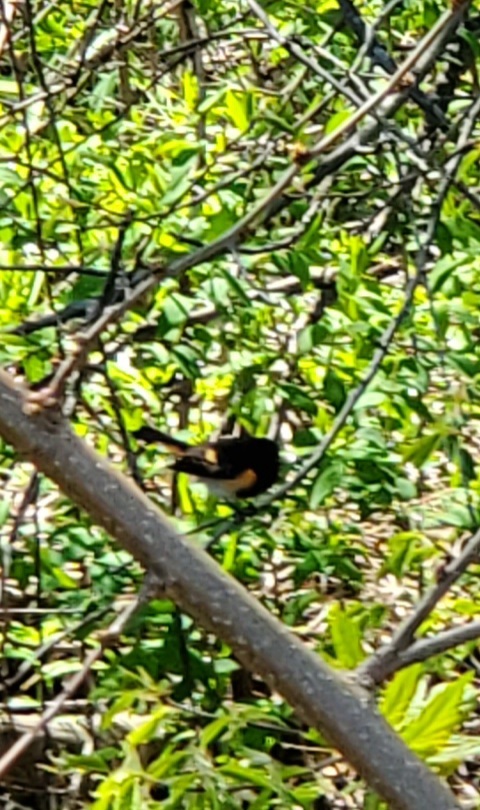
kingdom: Animalia
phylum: Chordata
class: Aves
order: Passeriformes
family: Parulidae
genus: Setophaga
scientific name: Setophaga ruticilla
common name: American redstart
